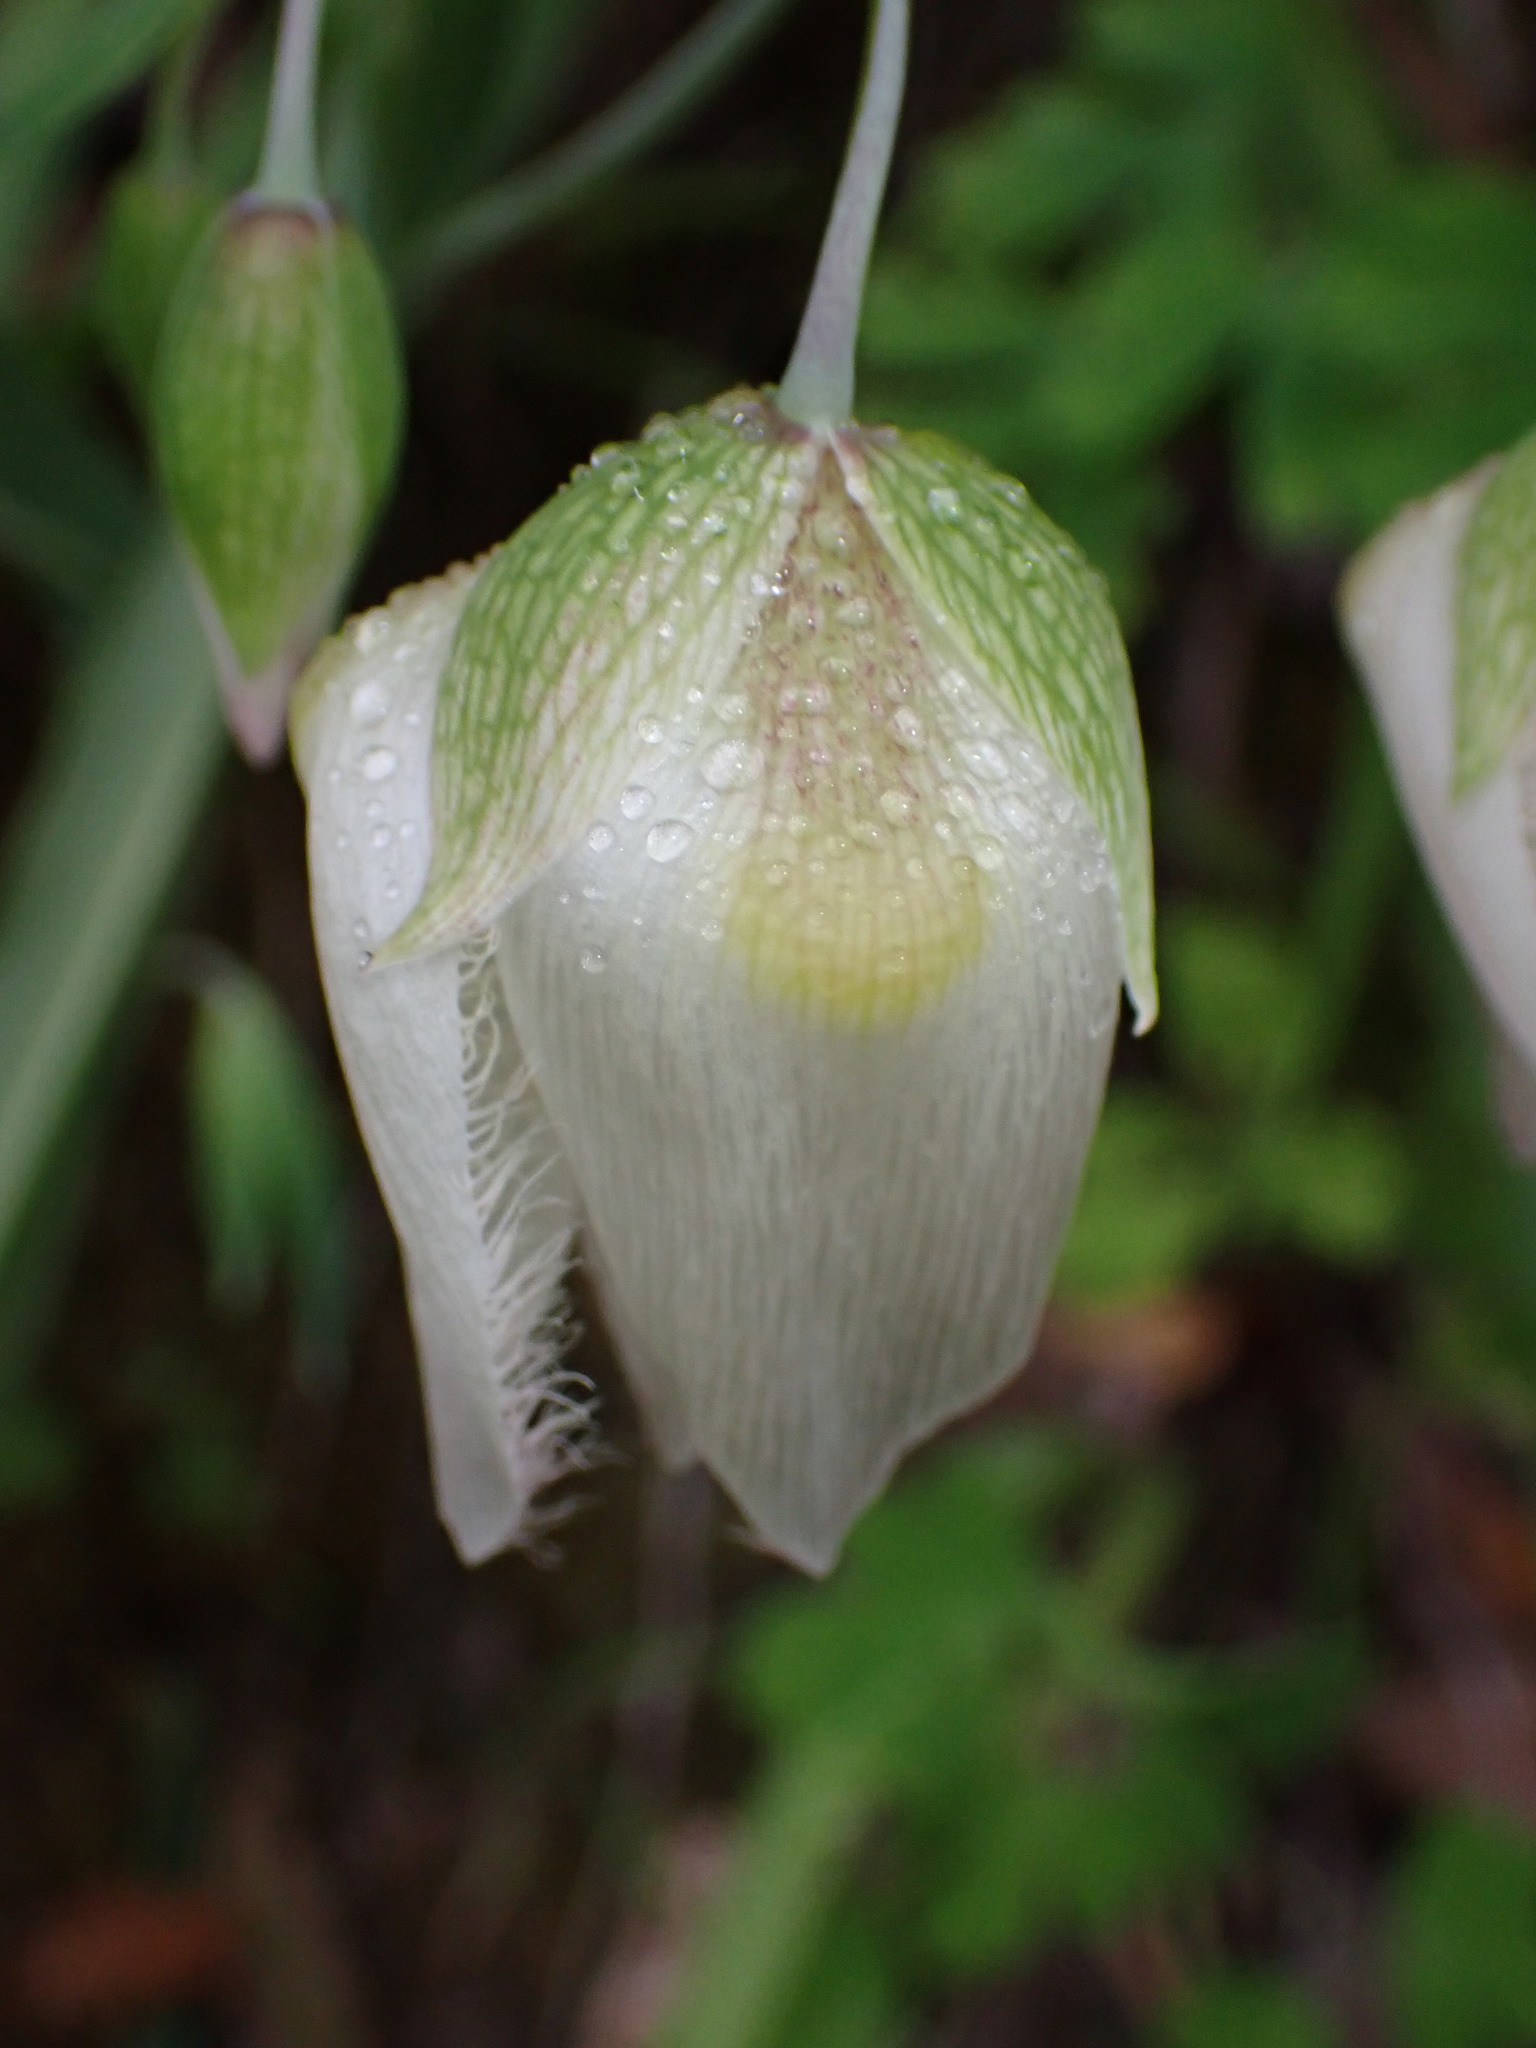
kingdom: Plantae
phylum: Tracheophyta
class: Liliopsida
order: Liliales
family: Liliaceae
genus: Calochortus
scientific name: Calochortus albus
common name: Fairy-lantern
